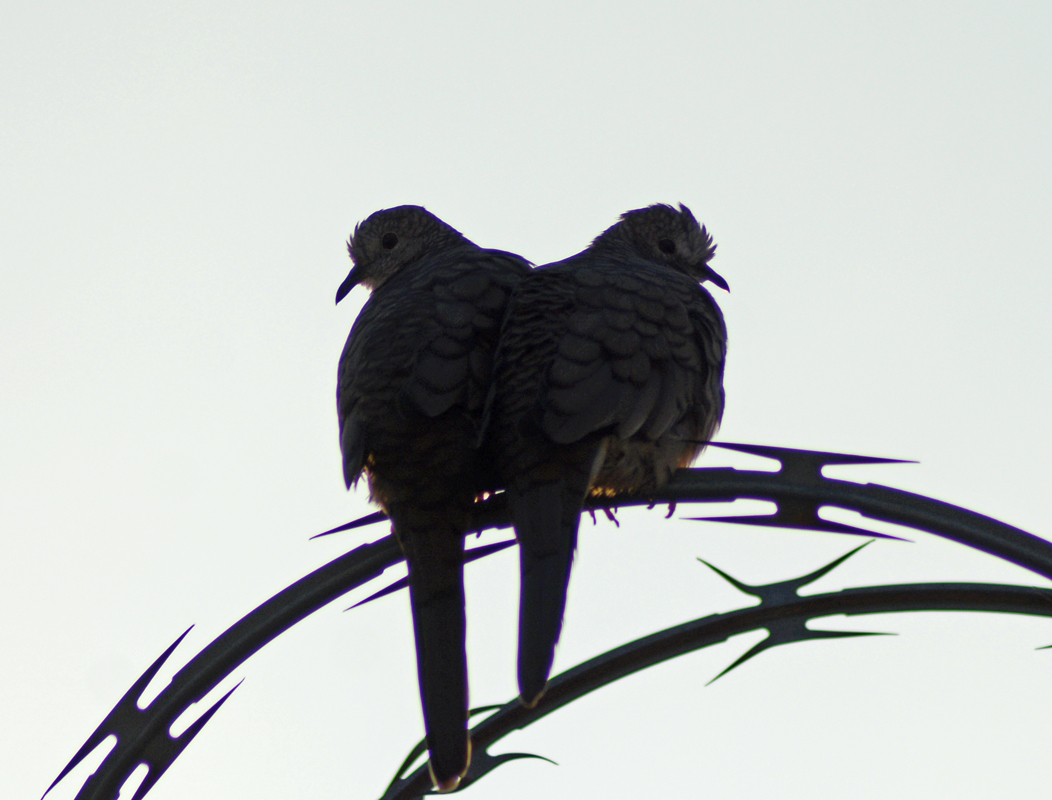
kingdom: Animalia
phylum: Chordata
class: Aves
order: Columbiformes
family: Columbidae
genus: Columbina
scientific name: Columbina inca
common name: Inca dove
